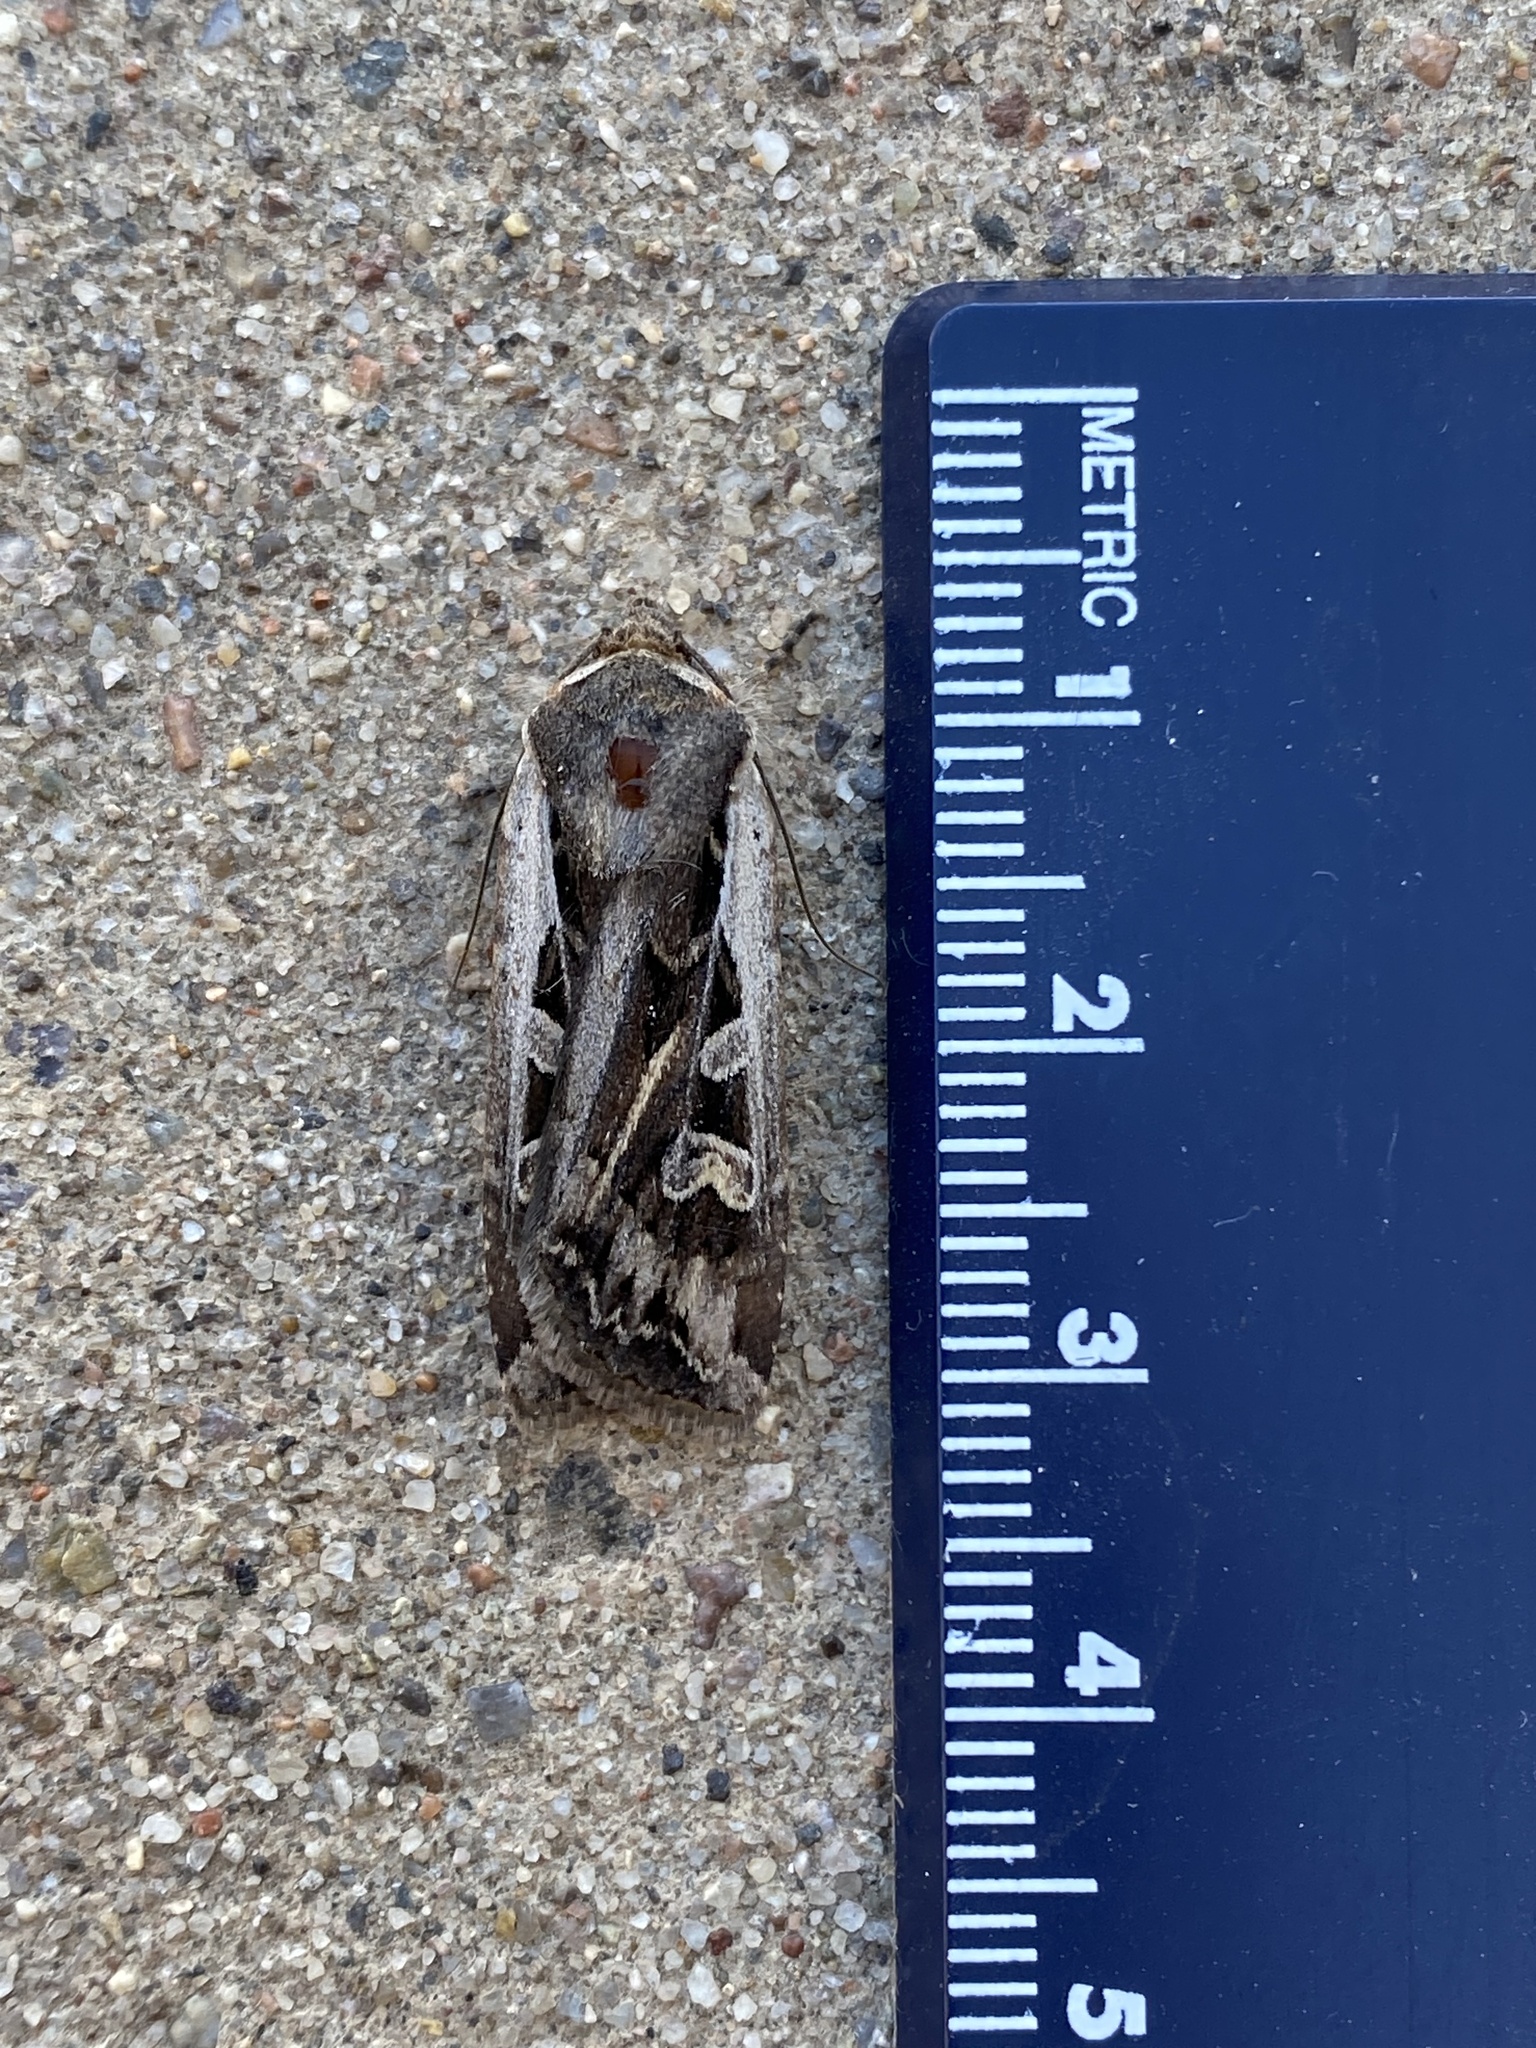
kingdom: Animalia
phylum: Arthropoda
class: Insecta
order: Lepidoptera
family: Noctuidae
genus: Euxoa
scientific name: Euxoa auxiliaris
